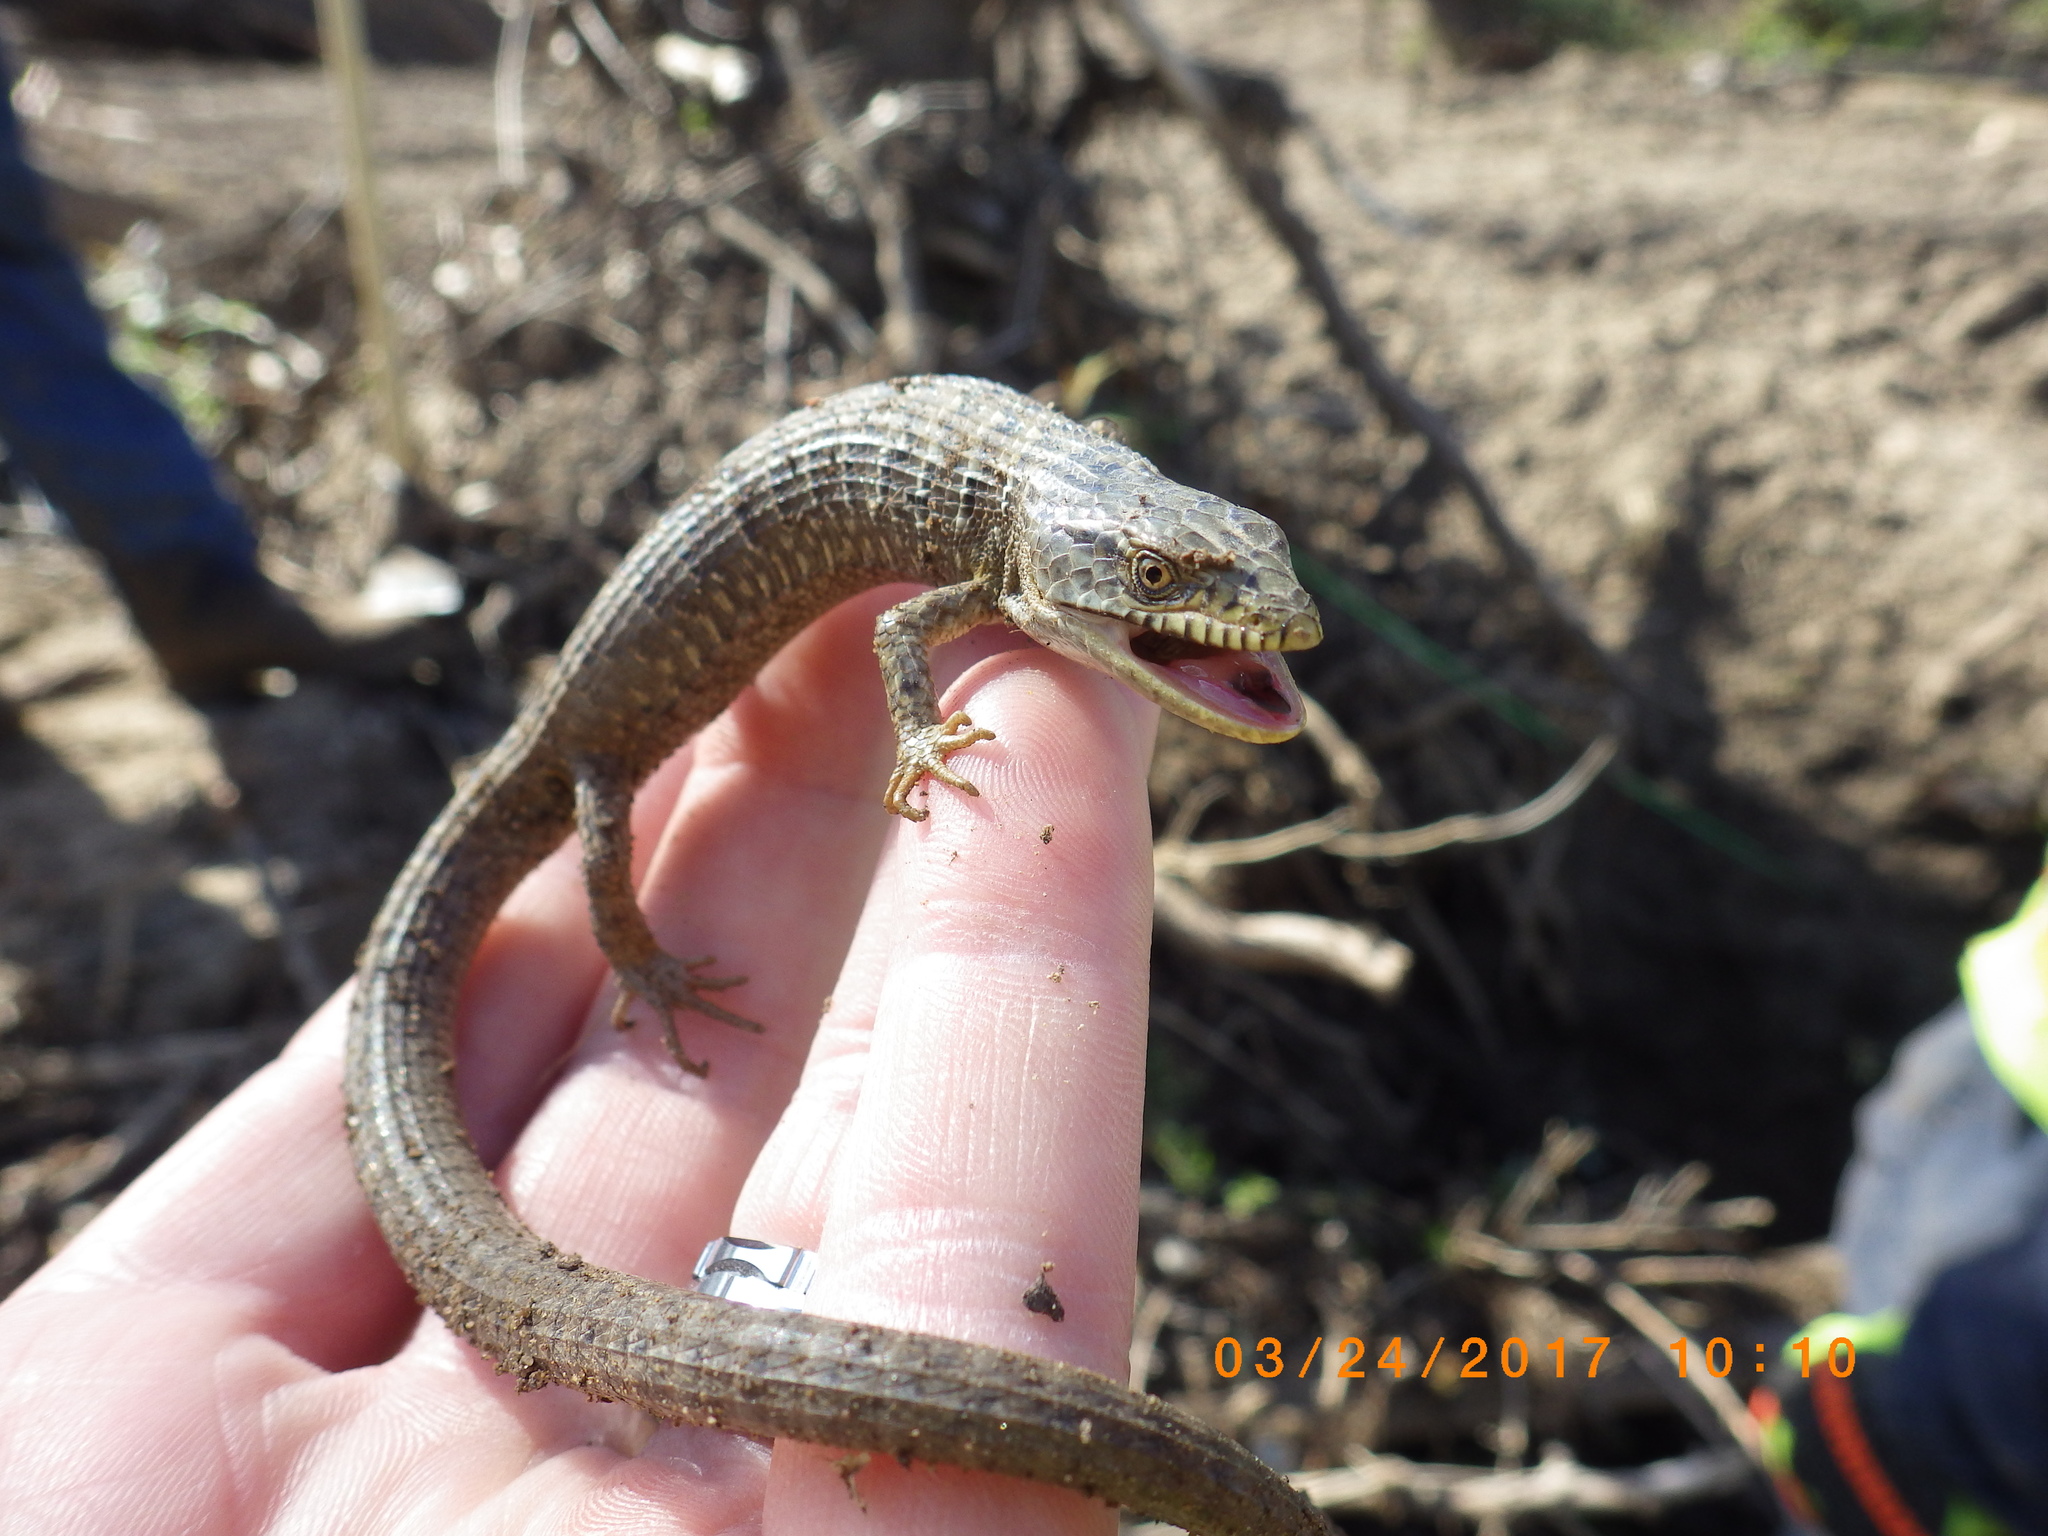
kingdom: Animalia
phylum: Chordata
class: Squamata
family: Anguidae
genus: Elgaria
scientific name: Elgaria multicarinata
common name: Southern alligator lizard
